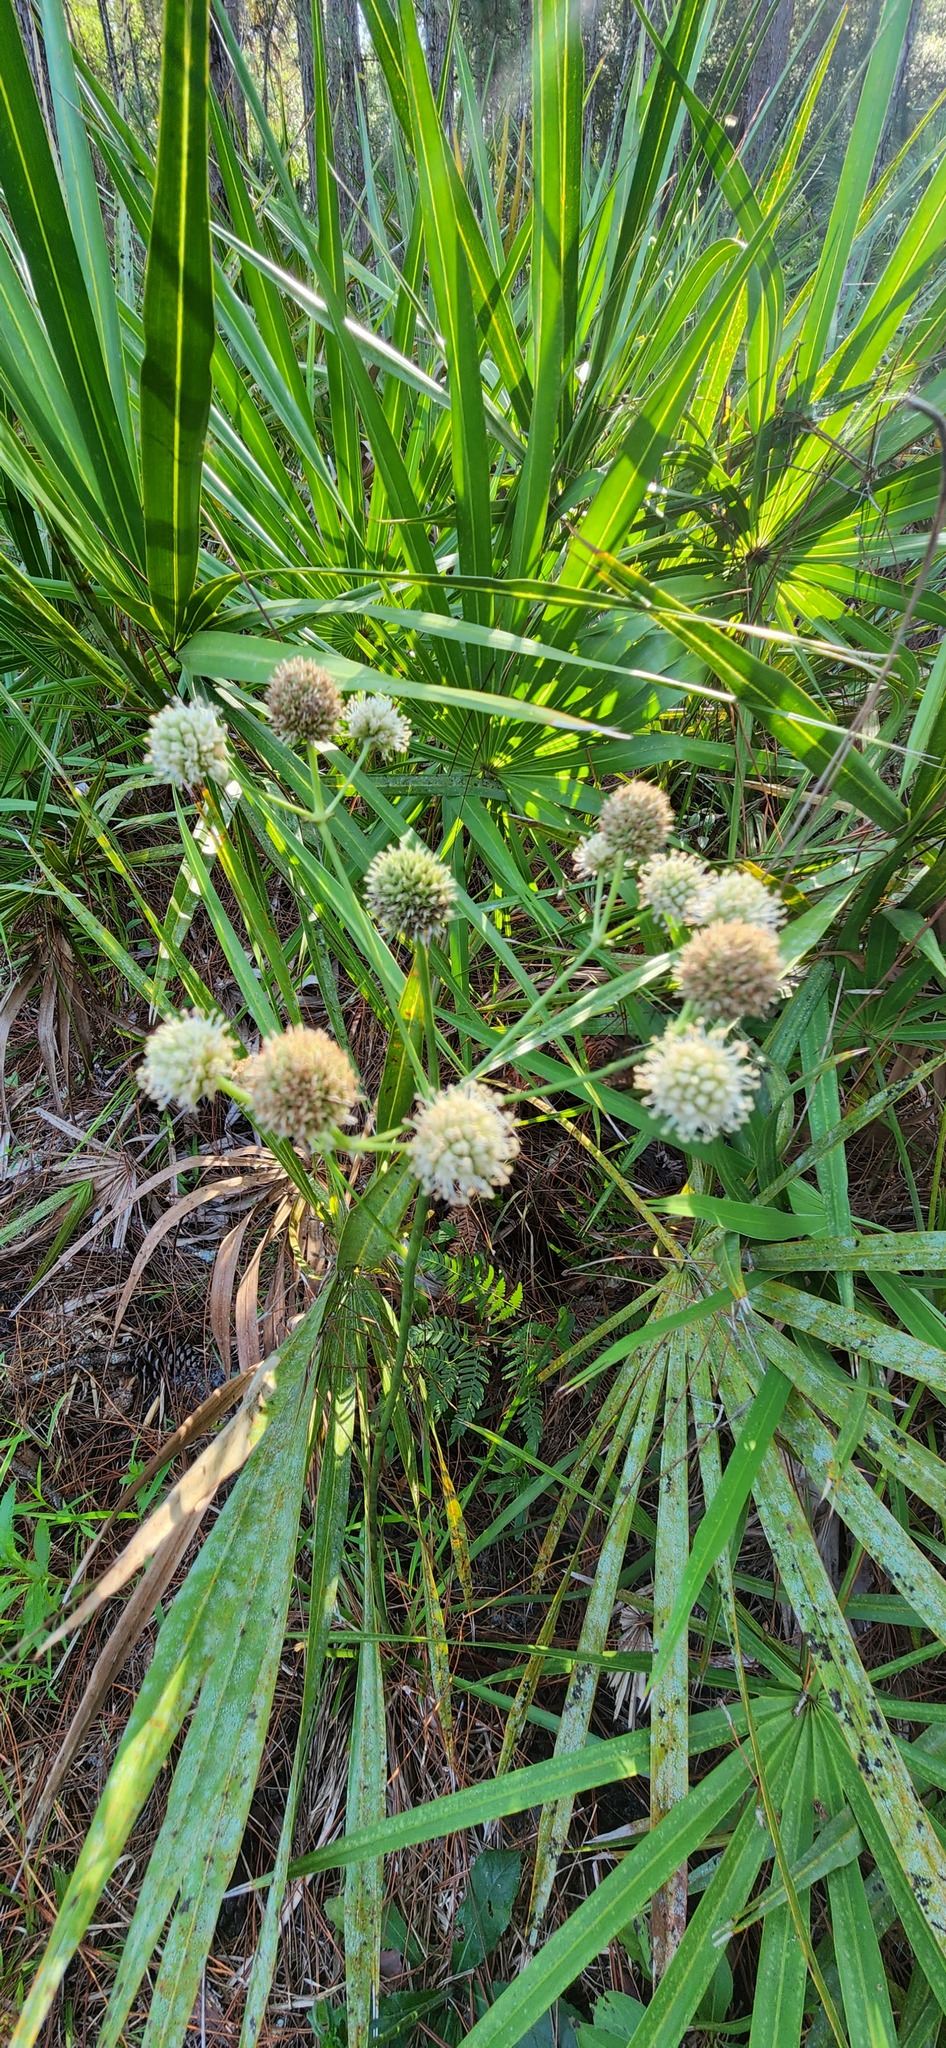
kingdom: Plantae
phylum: Tracheophyta
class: Magnoliopsida
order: Apiales
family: Apiaceae
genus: Eryngium
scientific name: Eryngium yuccifolium
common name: Button eryngo
